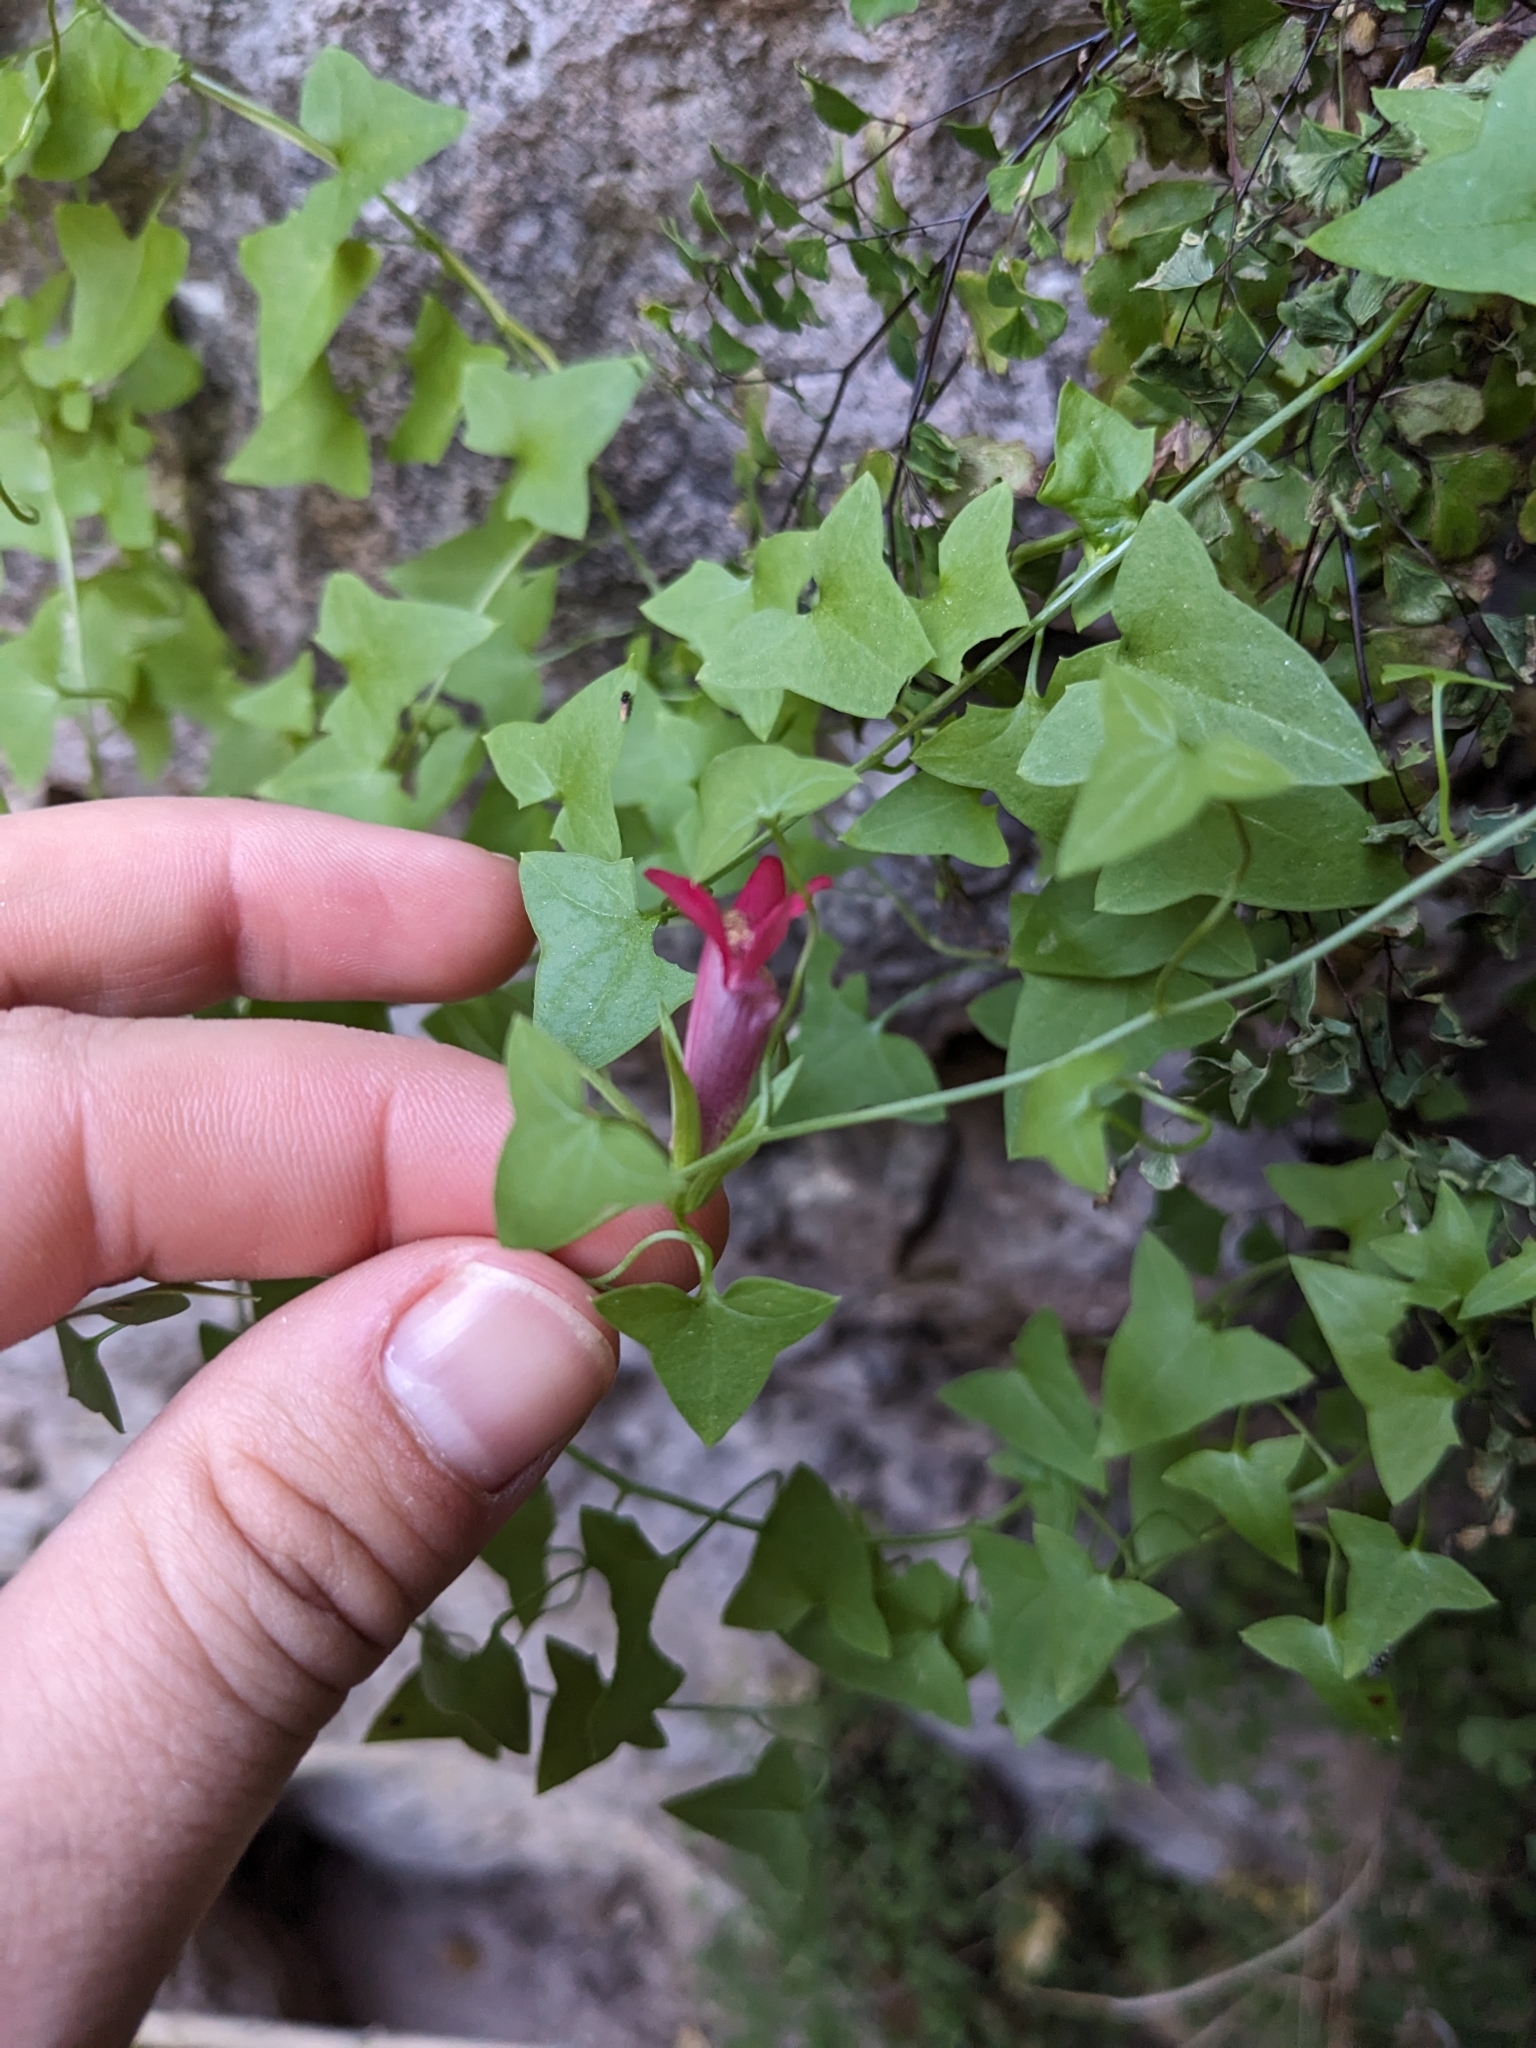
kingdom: Plantae
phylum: Tracheophyta
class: Magnoliopsida
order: Lamiales
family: Plantaginaceae
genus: Maurandella
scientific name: Maurandella antirrhiniflora
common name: Violet twining-snapdragon
